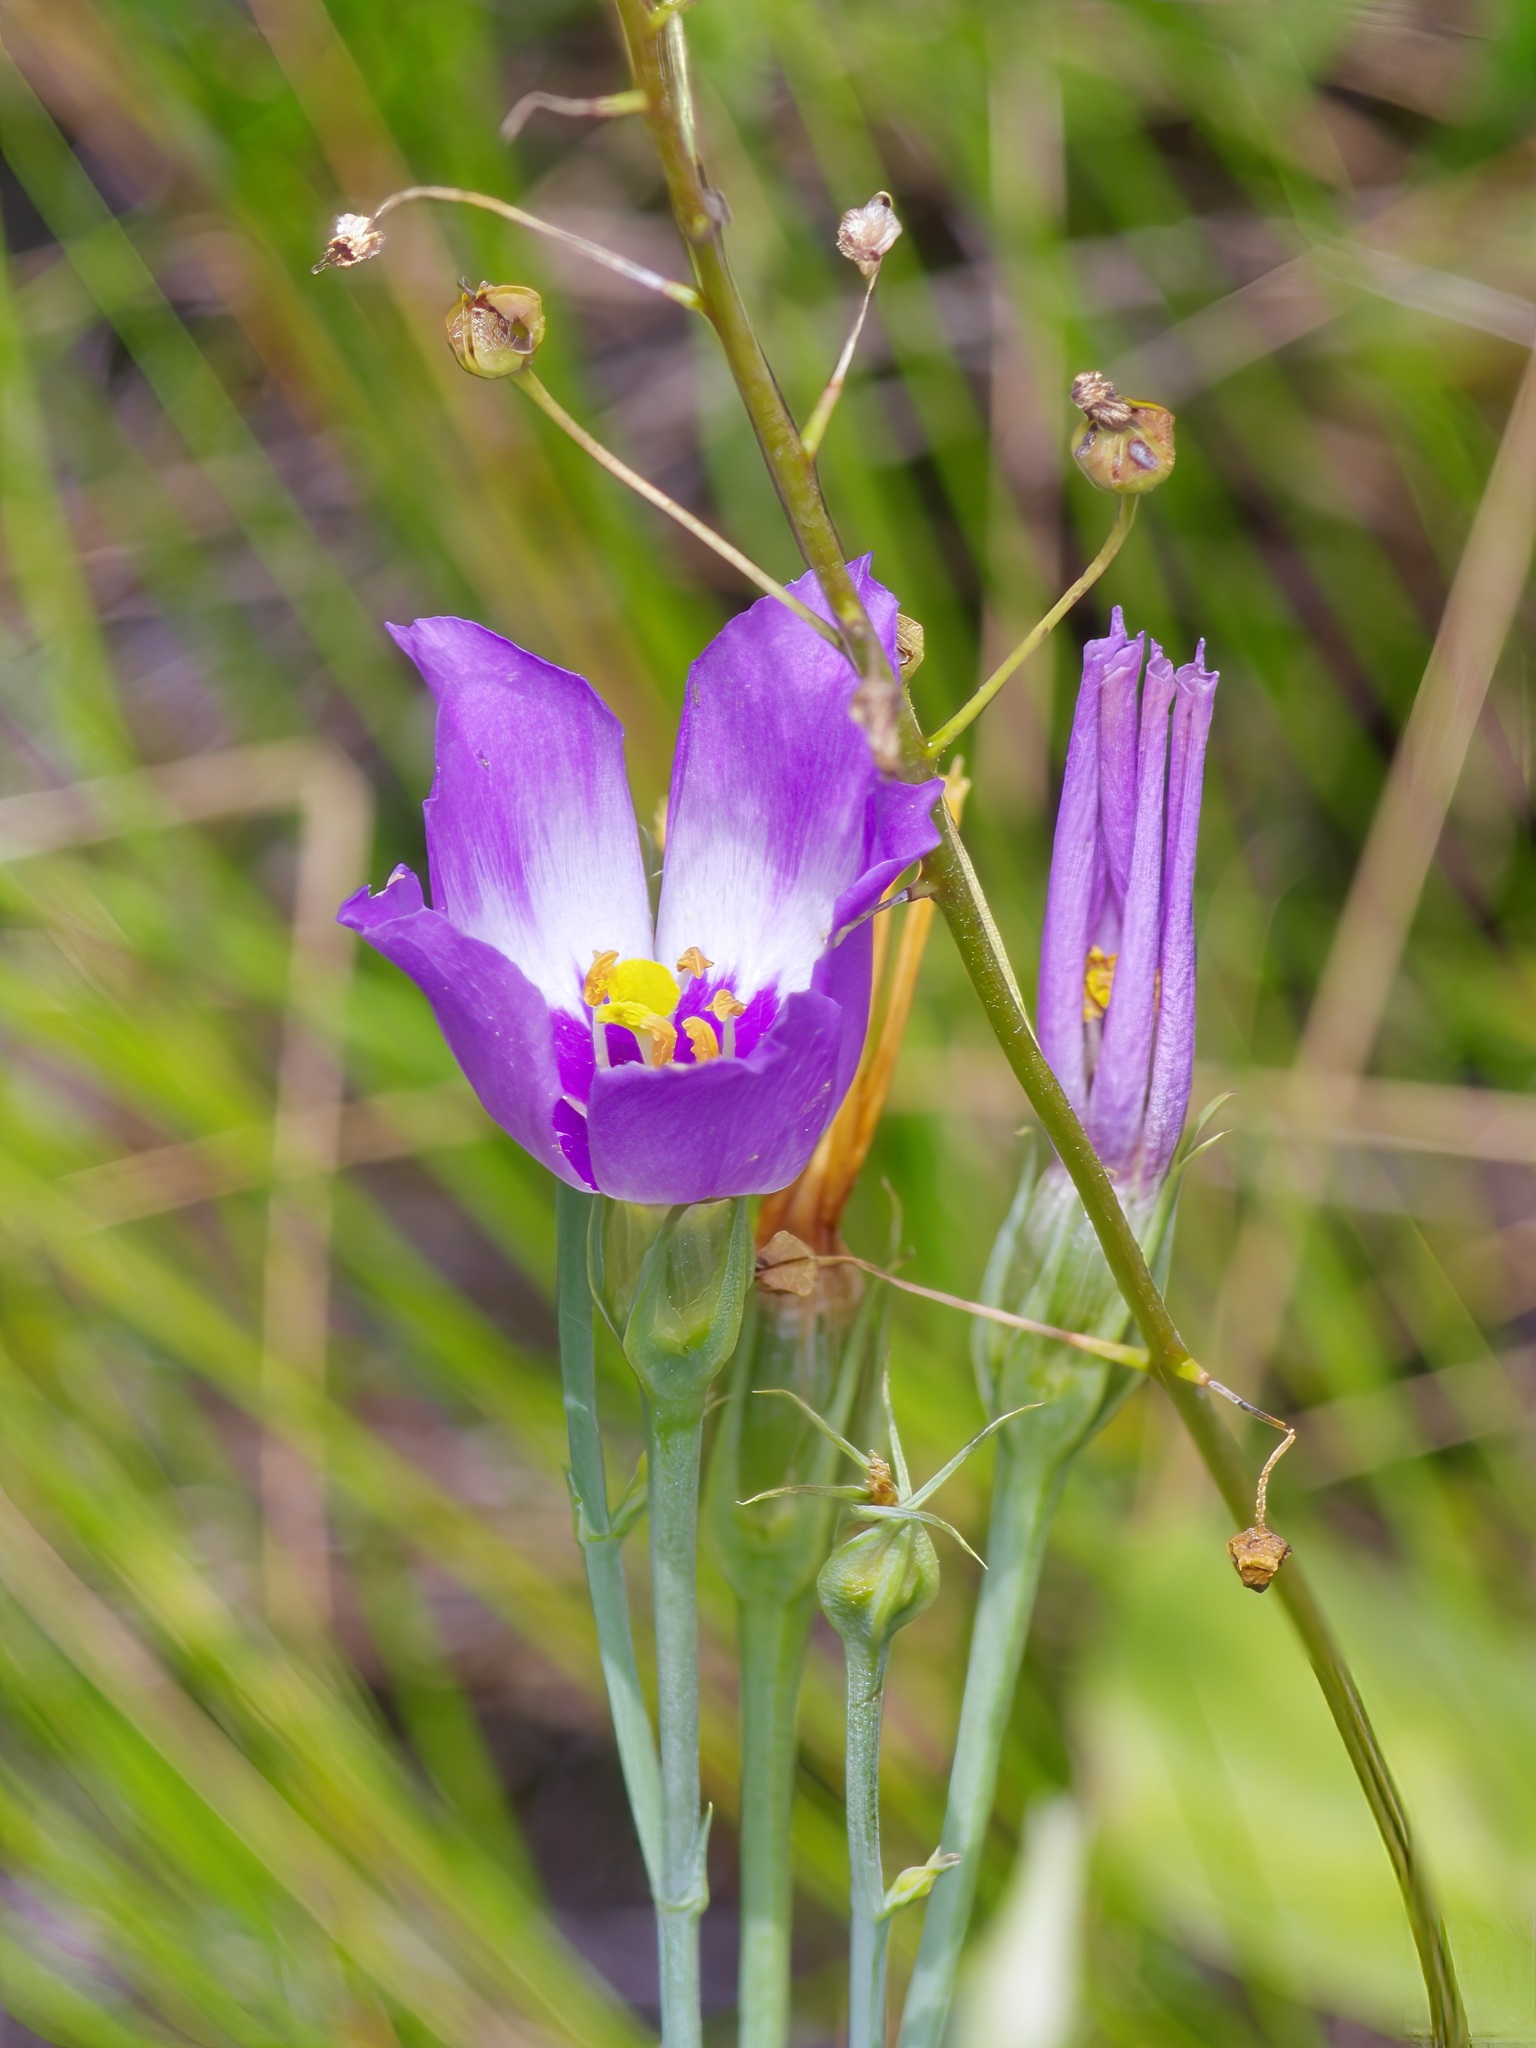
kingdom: Plantae
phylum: Tracheophyta
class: Magnoliopsida
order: Gentianales
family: Gentianaceae
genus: Eustoma
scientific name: Eustoma exaltatum
